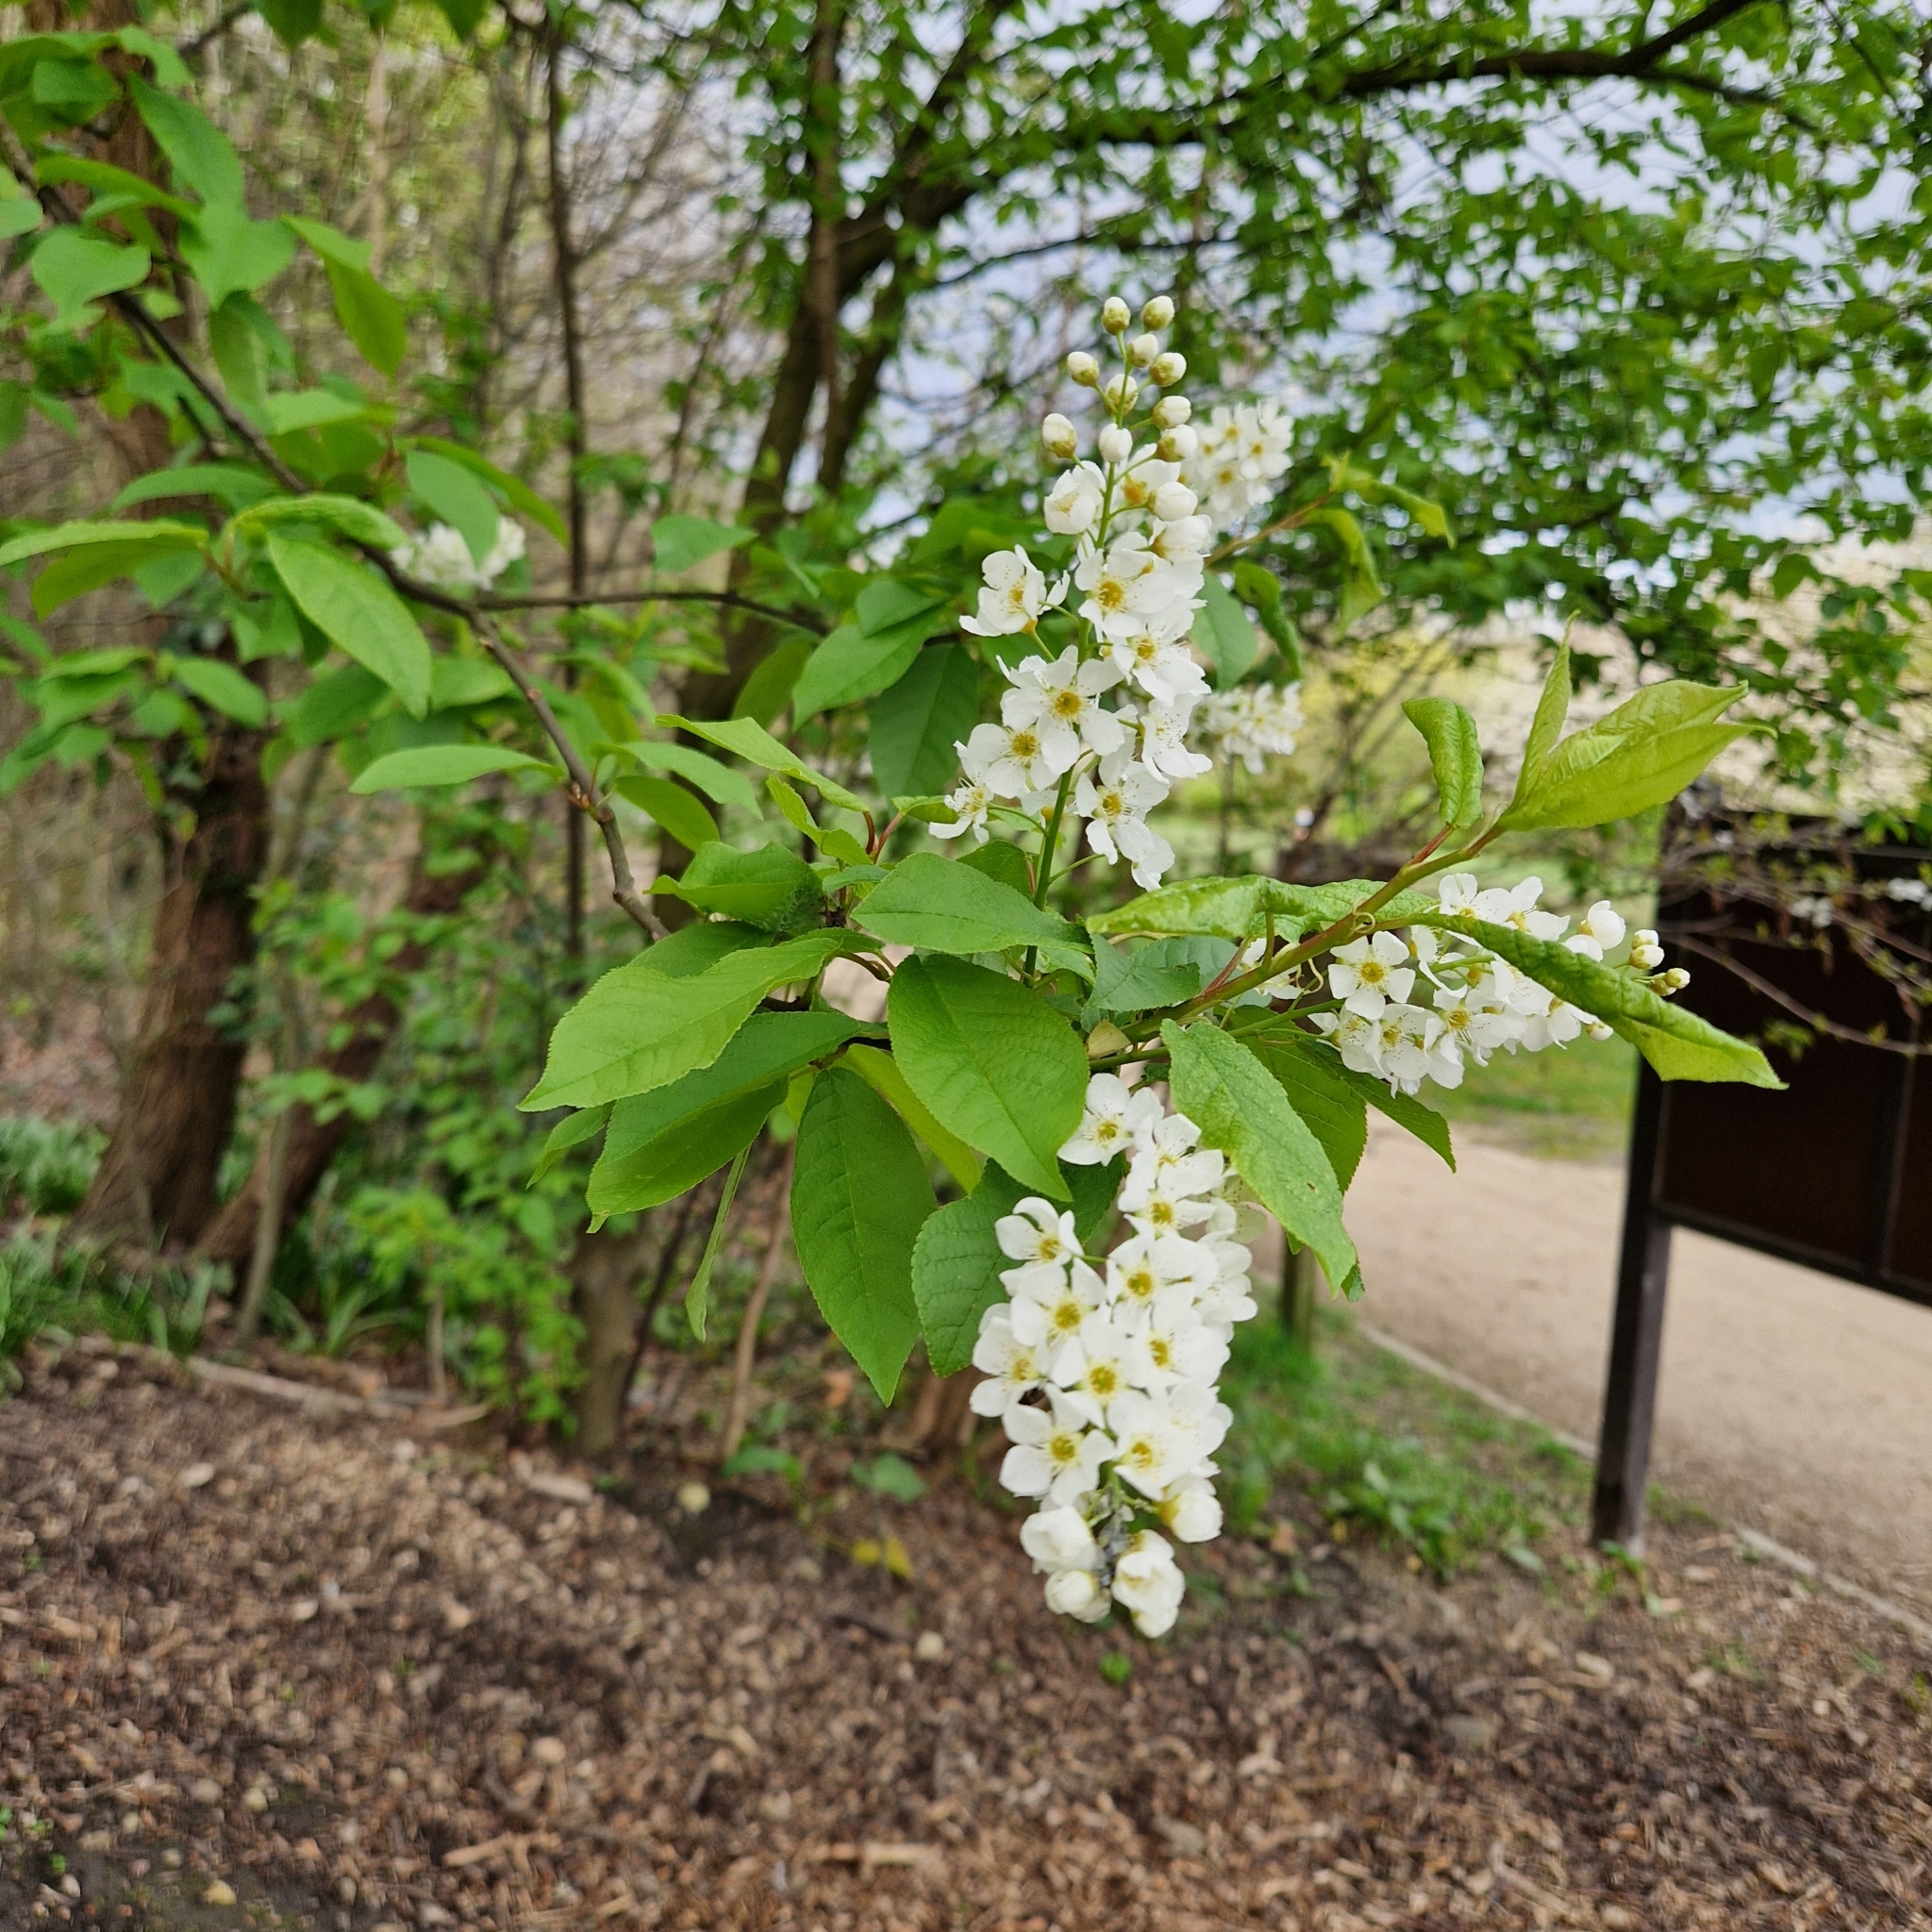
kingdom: Plantae
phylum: Tracheophyta
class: Magnoliopsida
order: Rosales
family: Rosaceae
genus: Prunus
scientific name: Prunus padus
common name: Bird cherry
